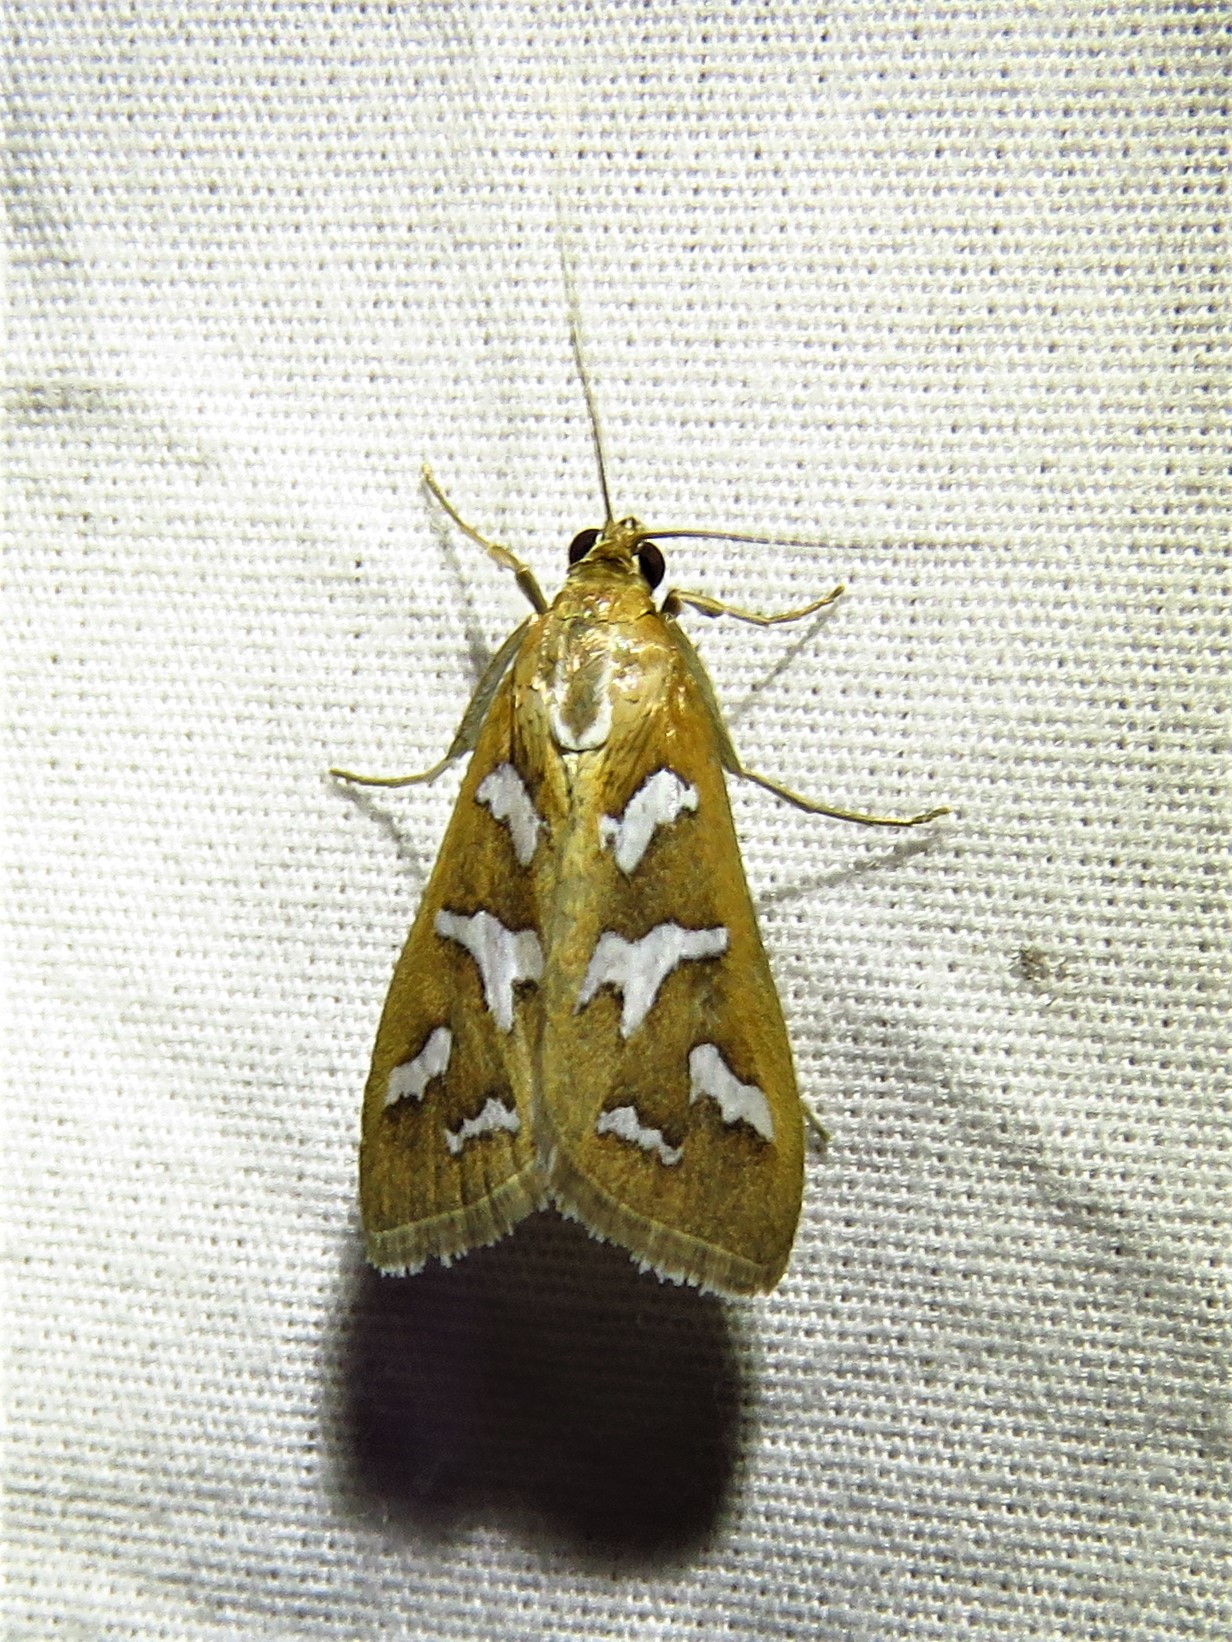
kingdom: Animalia
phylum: Arthropoda
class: Insecta
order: Lepidoptera
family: Crambidae
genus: Diastictis
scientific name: Diastictis fracturalis
